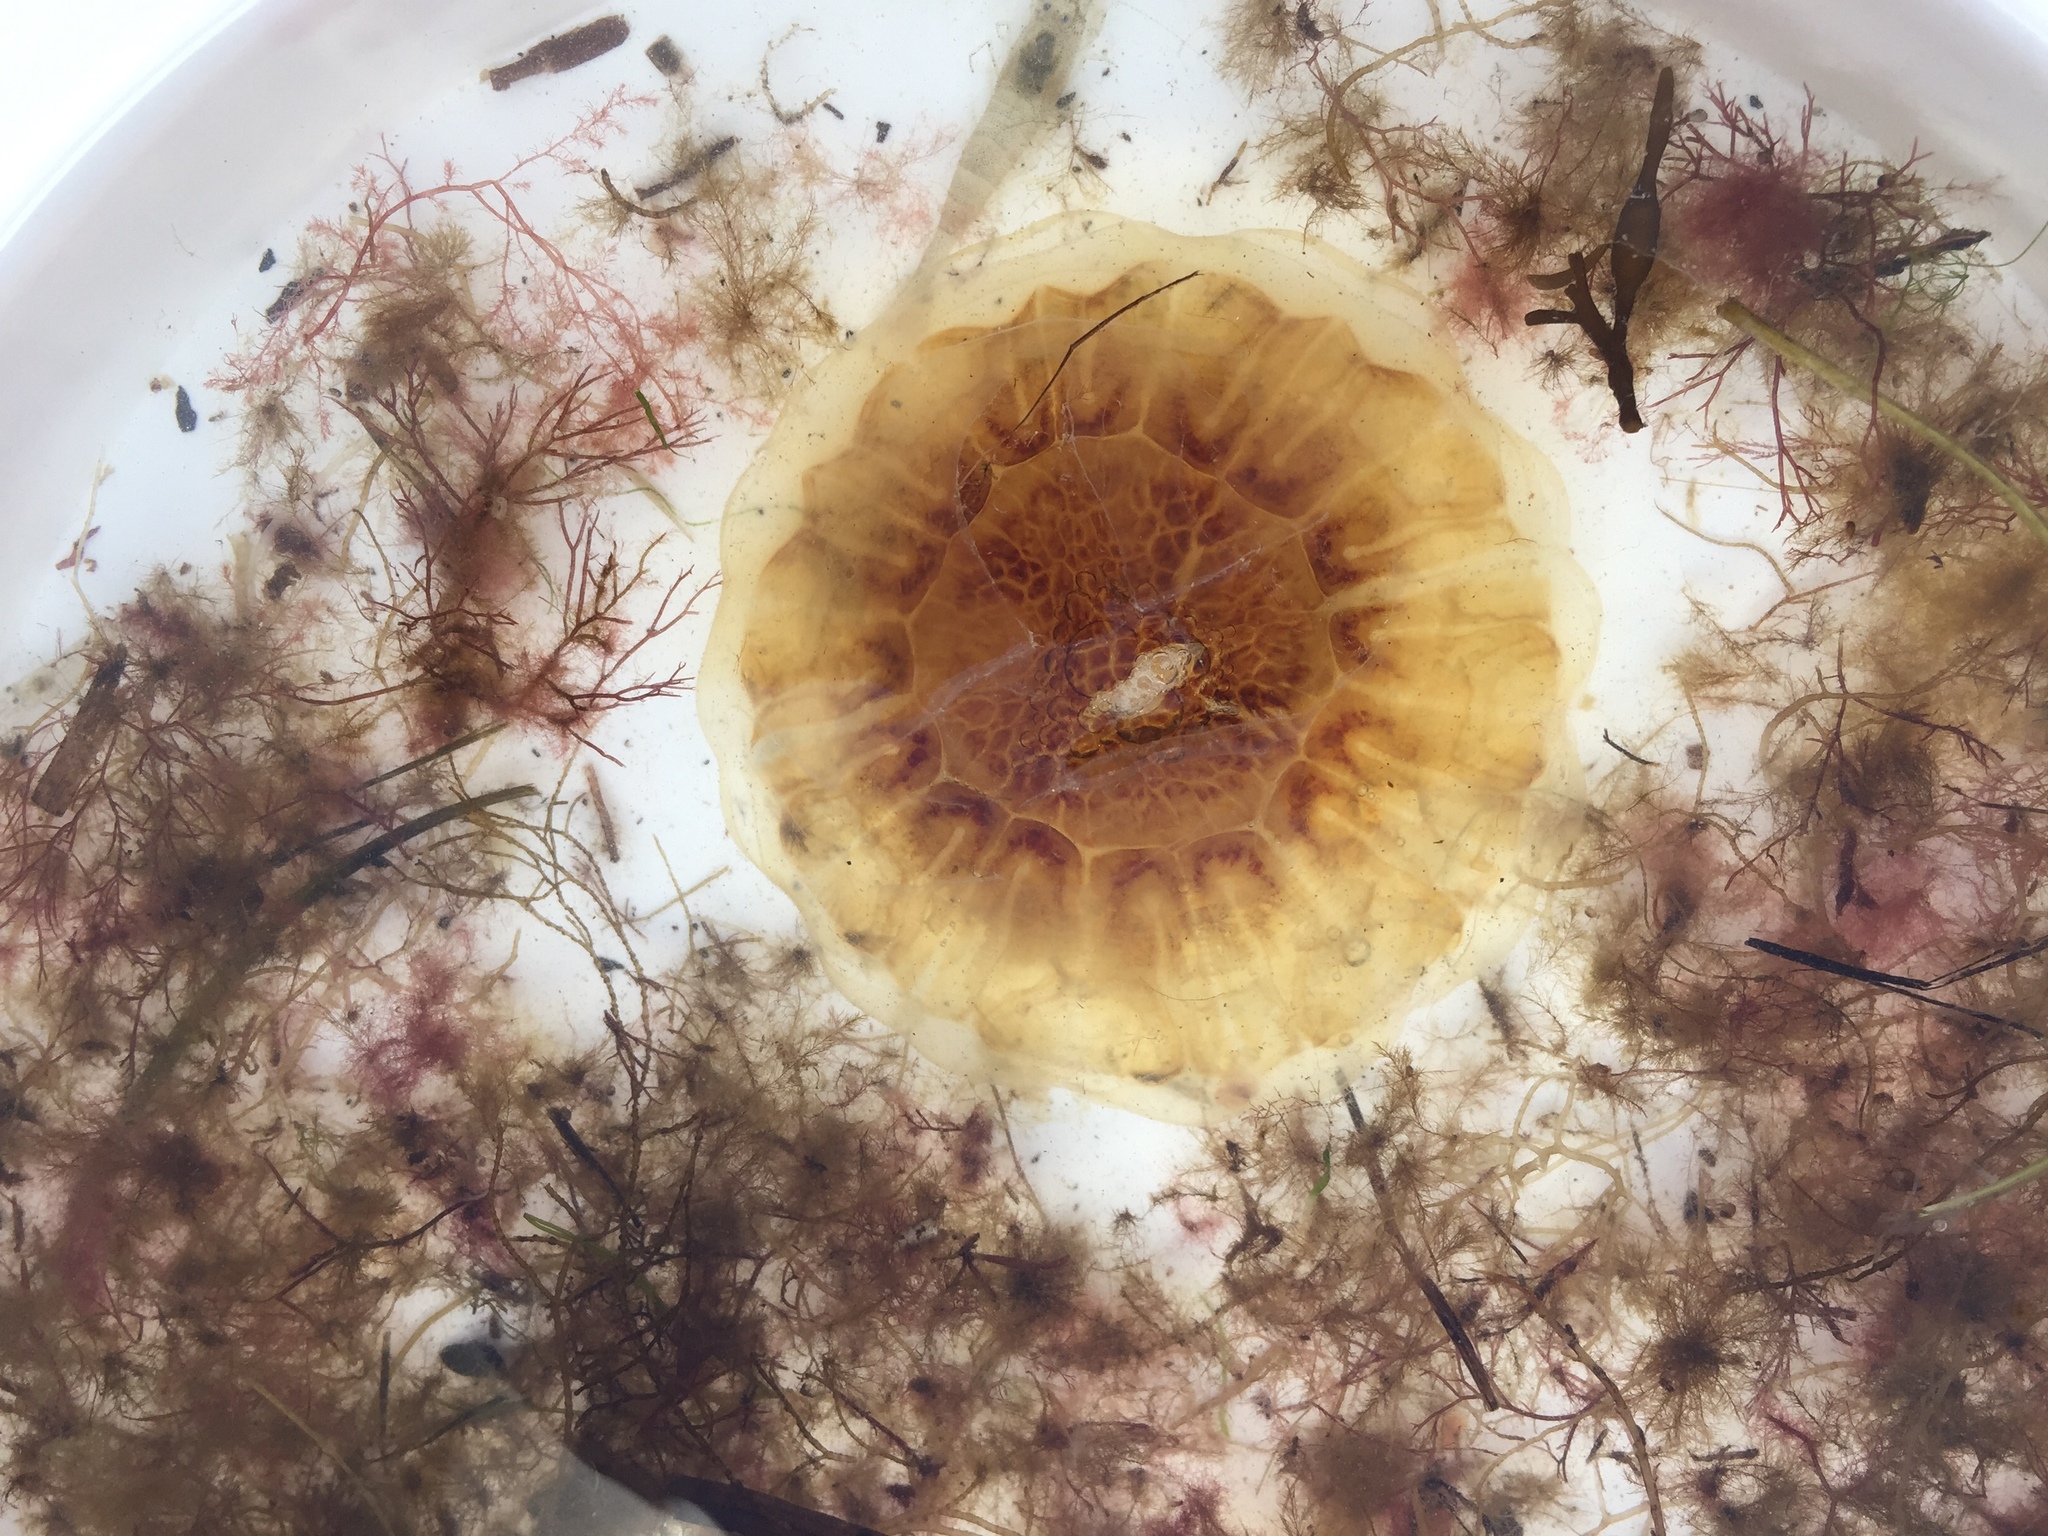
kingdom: Animalia
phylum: Cnidaria
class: Scyphozoa
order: Semaeostomeae
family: Cyaneidae
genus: Cyanea
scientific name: Cyanea capillata
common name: Lion's mane jellyfish
